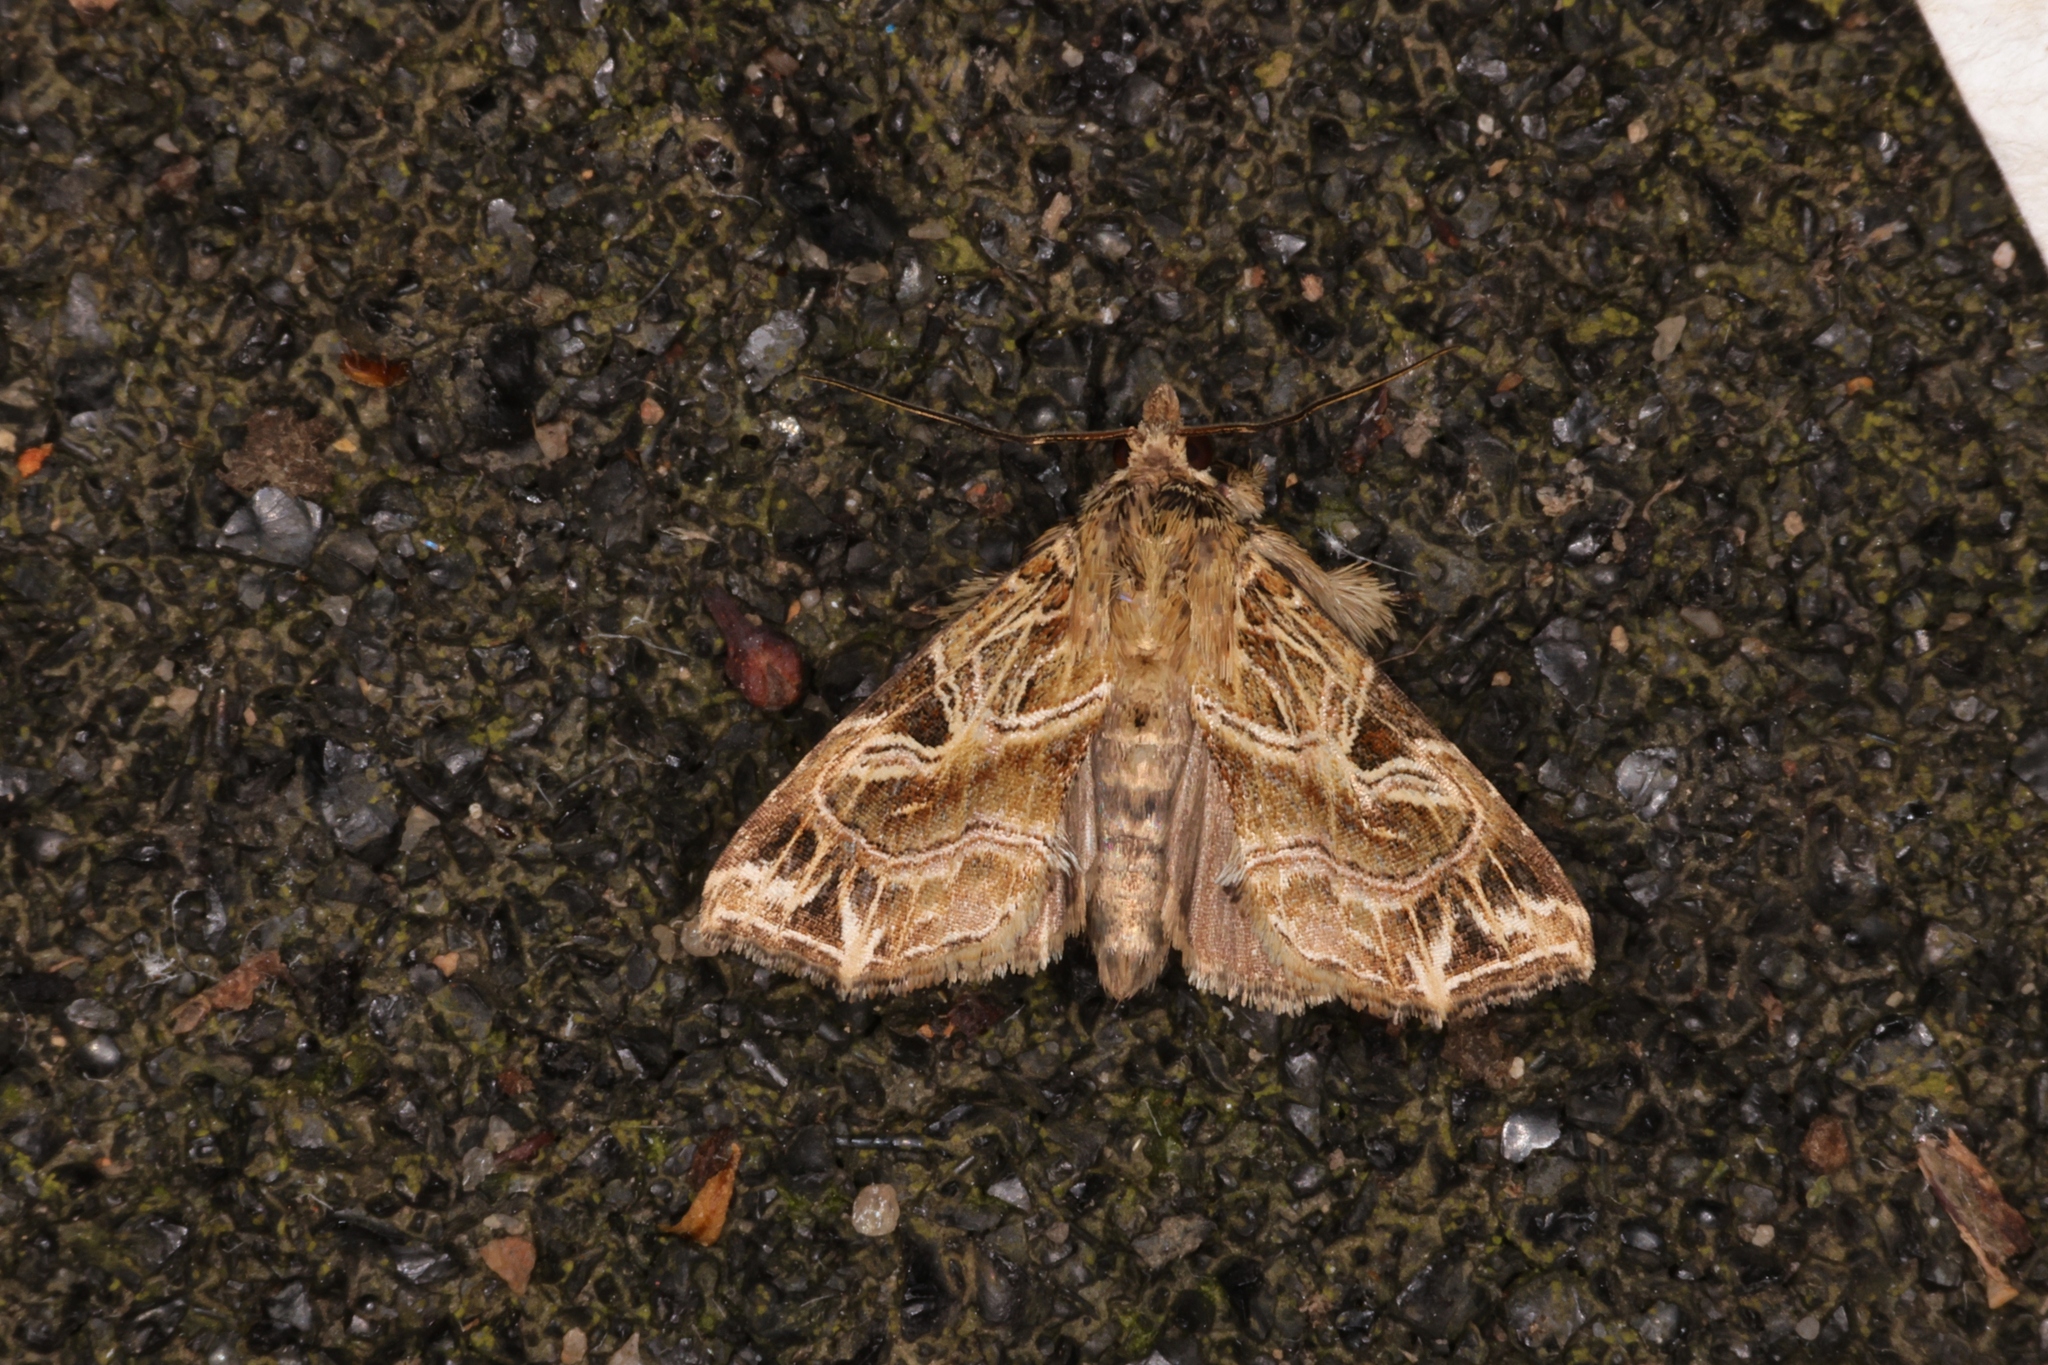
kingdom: Animalia
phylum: Arthropoda
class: Insecta
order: Lepidoptera
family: Noctuidae
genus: Callopistria
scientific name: Callopistria flavitincta
